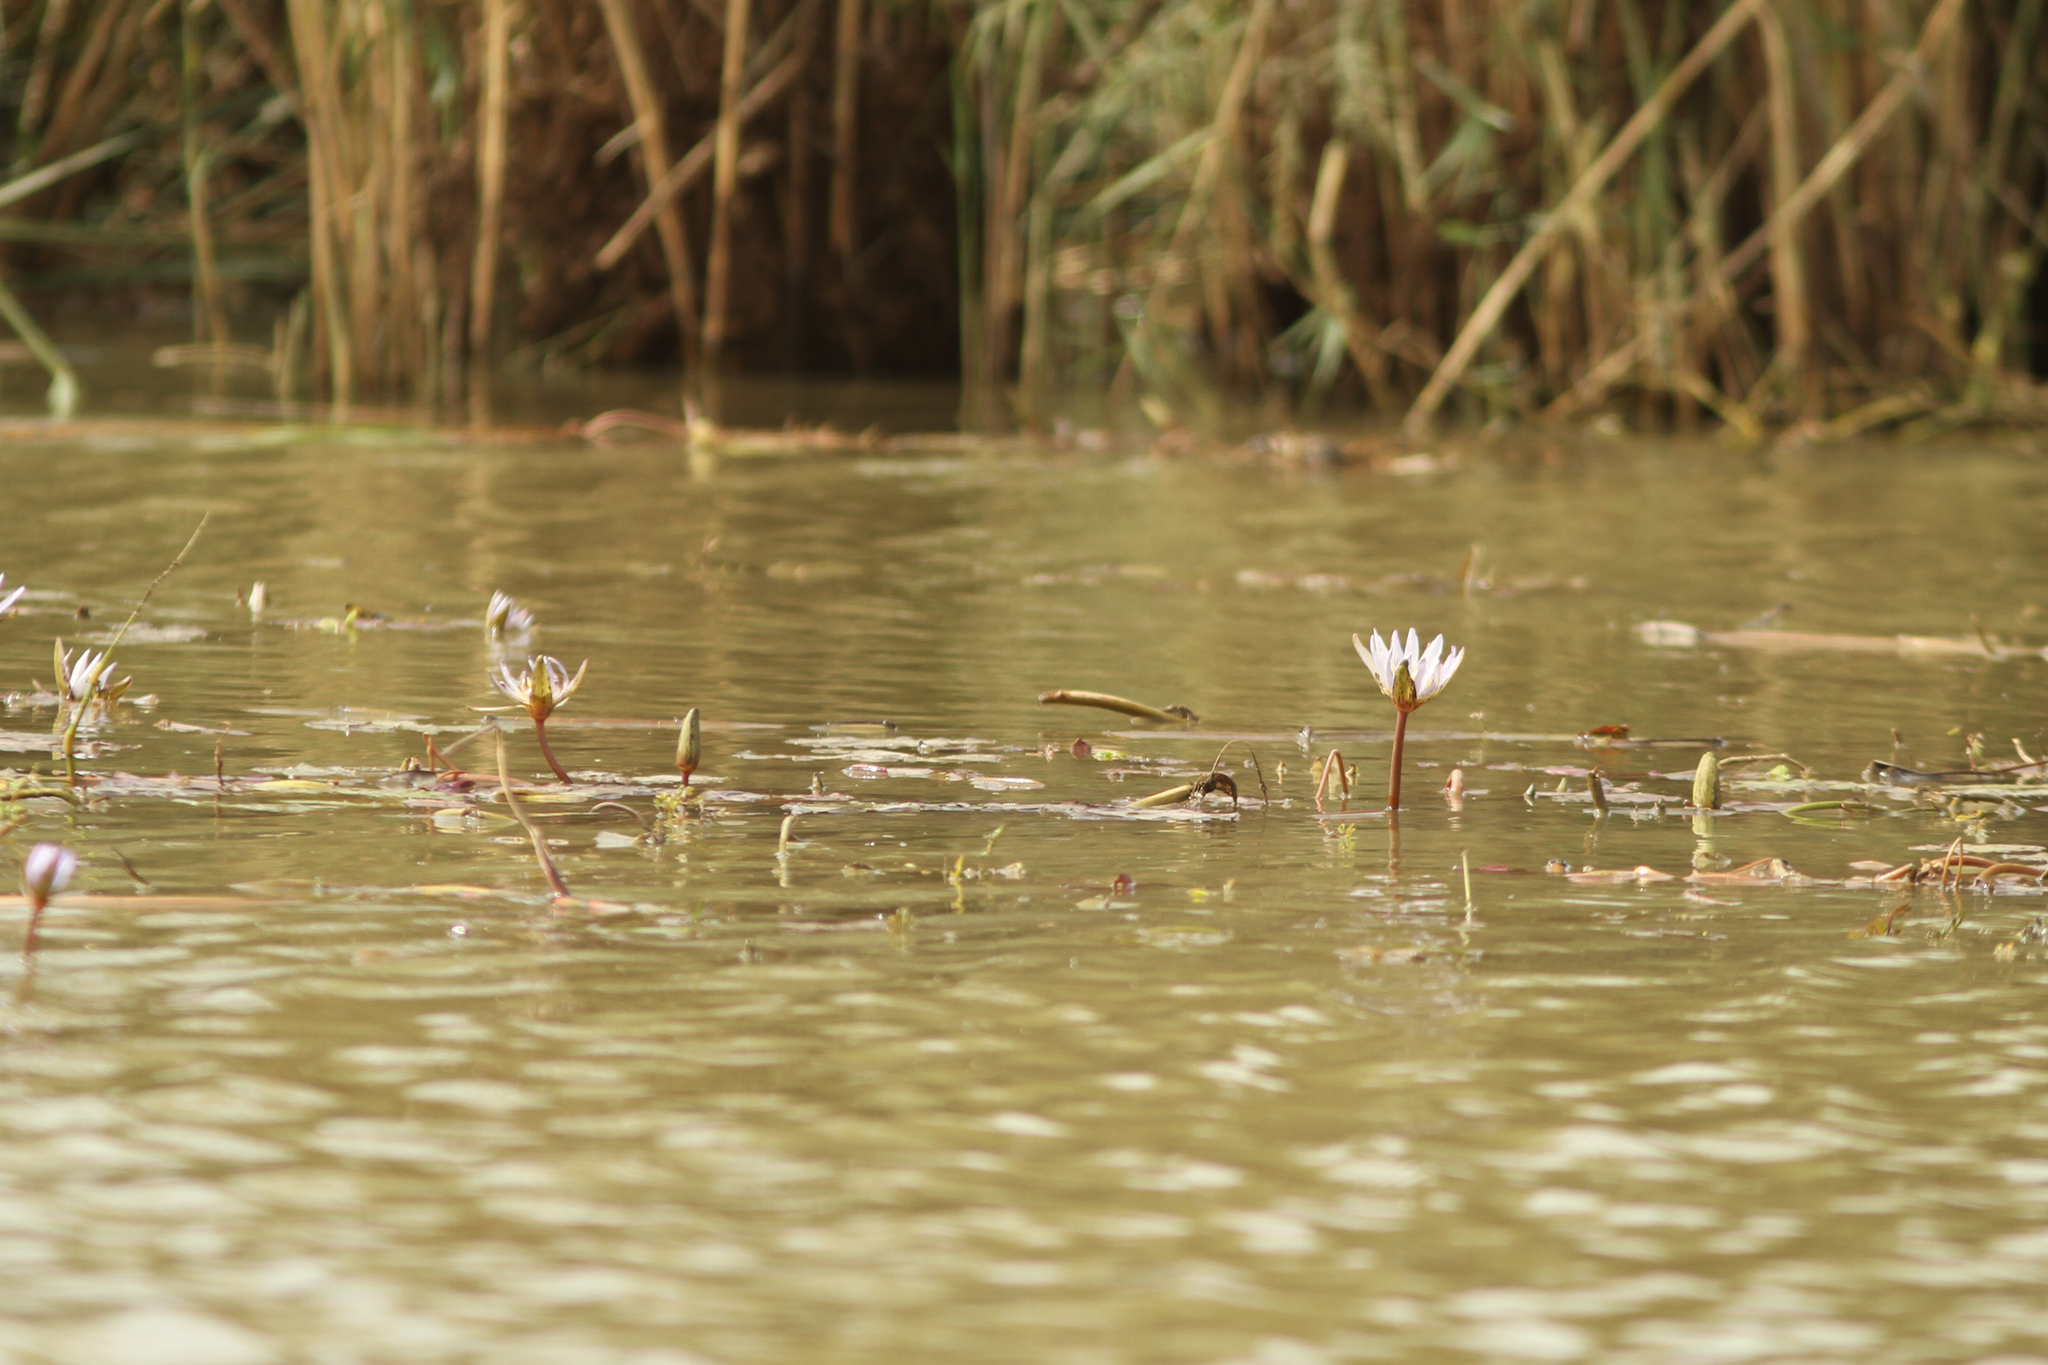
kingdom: Plantae
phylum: Tracheophyta
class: Magnoliopsida
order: Nymphaeales
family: Nymphaeaceae
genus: Nymphaea
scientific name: Nymphaea micrantha
